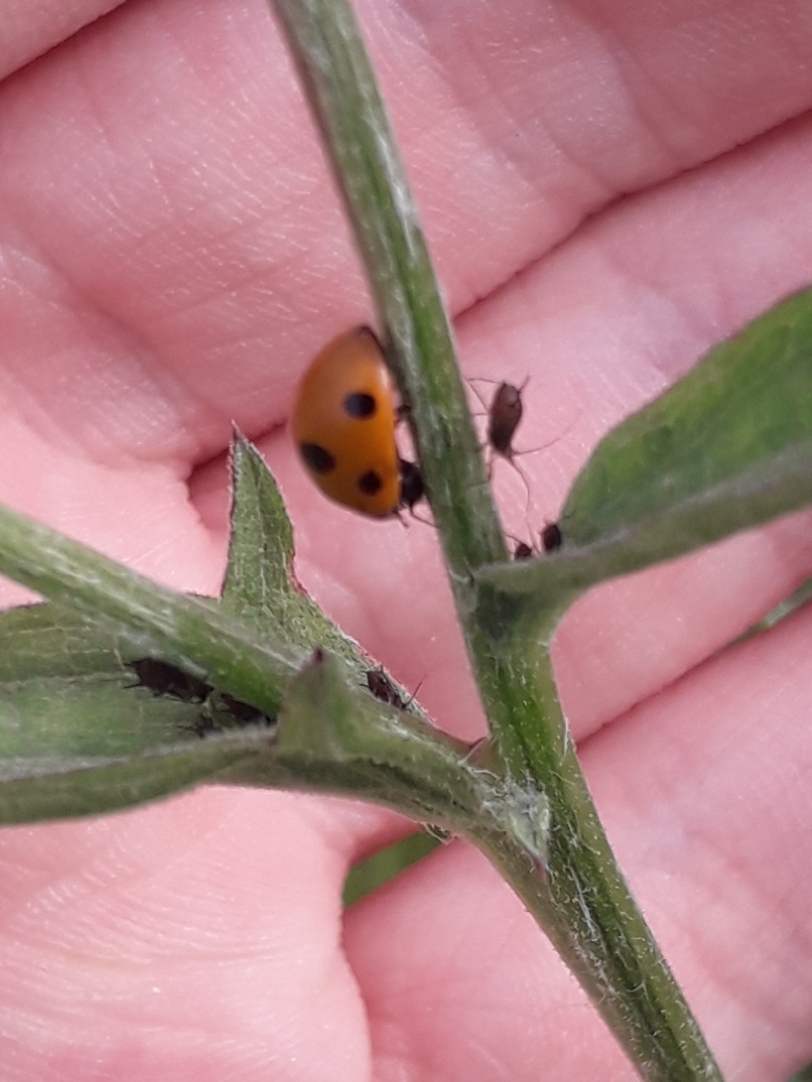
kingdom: Animalia
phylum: Arthropoda
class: Insecta
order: Coleoptera
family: Coccinellidae
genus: Coccinella
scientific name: Coccinella septempunctata
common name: Sevenspotted lady beetle
